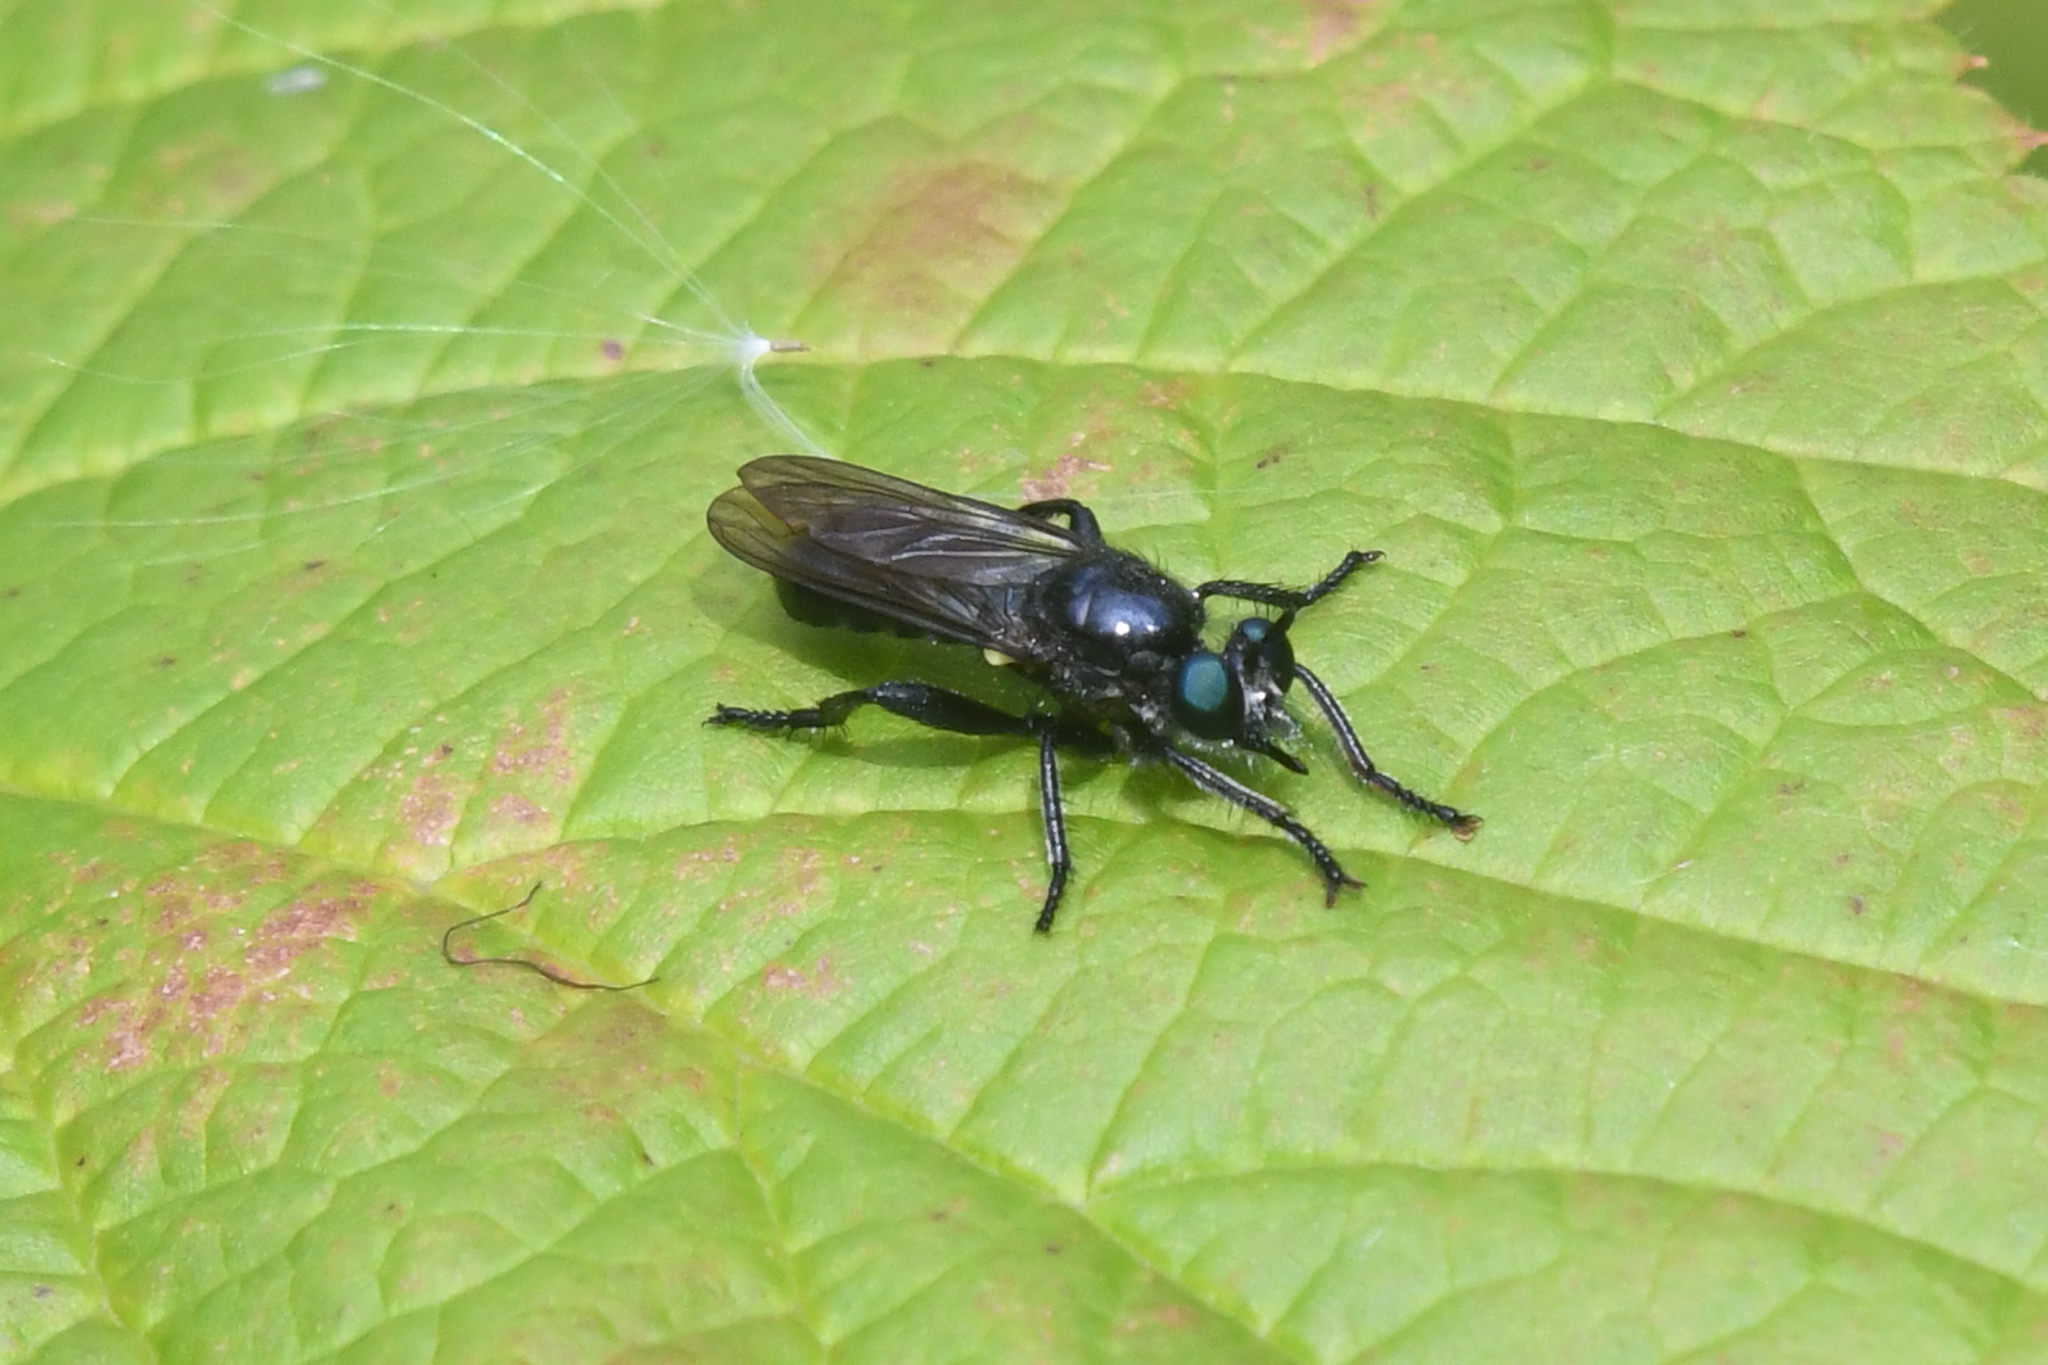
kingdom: Animalia
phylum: Arthropoda
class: Insecta
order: Diptera
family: Asilidae
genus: Laphria
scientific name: Laphria franciscana
